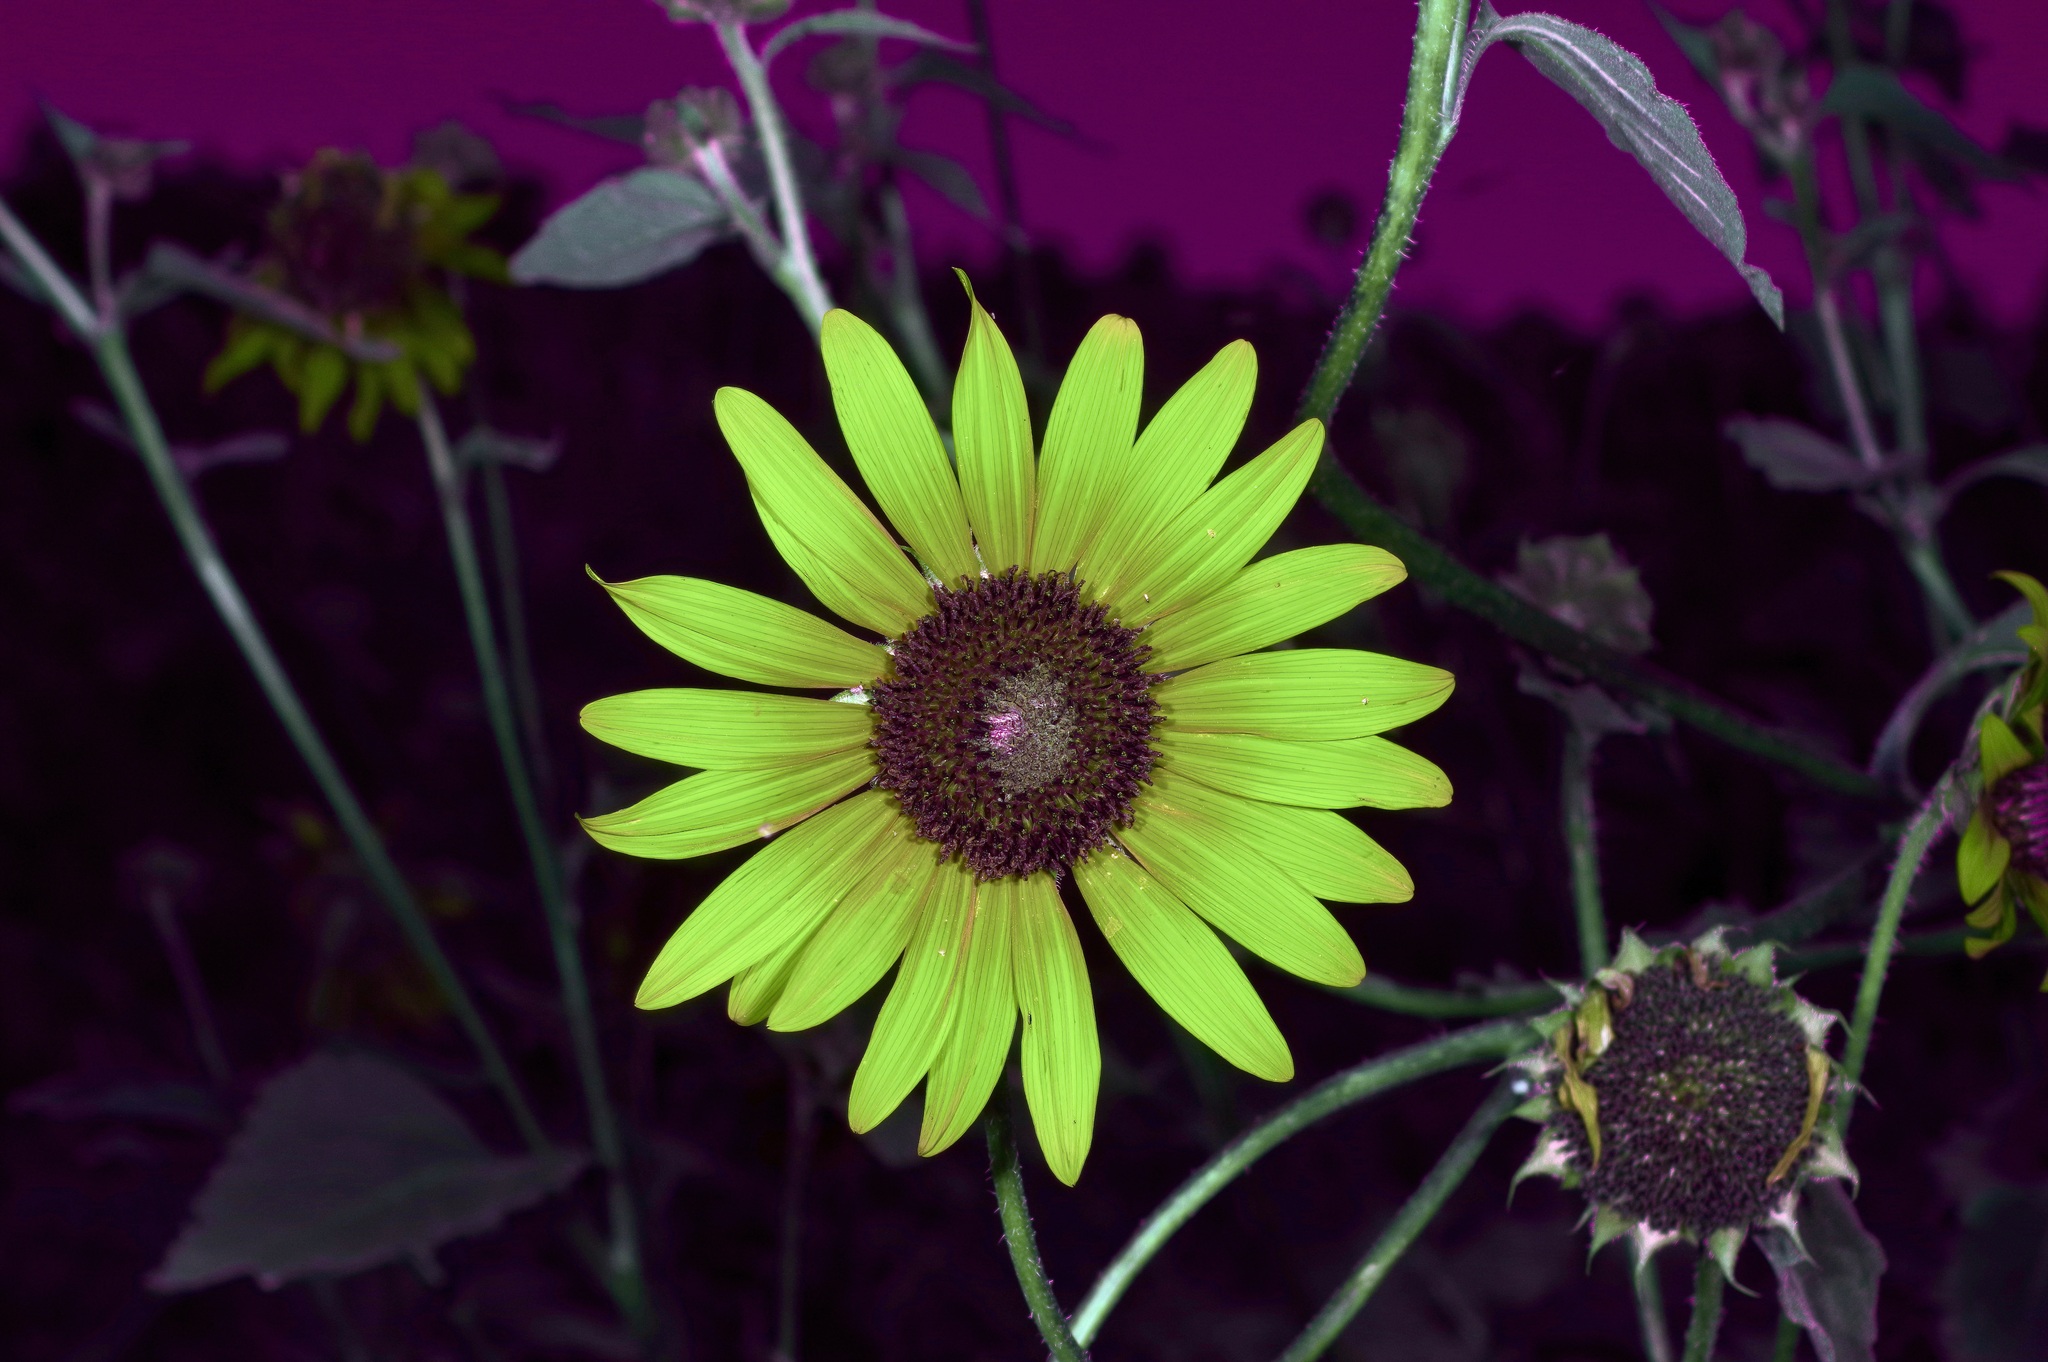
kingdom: Plantae
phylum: Tracheophyta
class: Magnoliopsida
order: Asterales
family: Asteraceae
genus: Helianthus
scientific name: Helianthus annuus
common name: Sunflower
